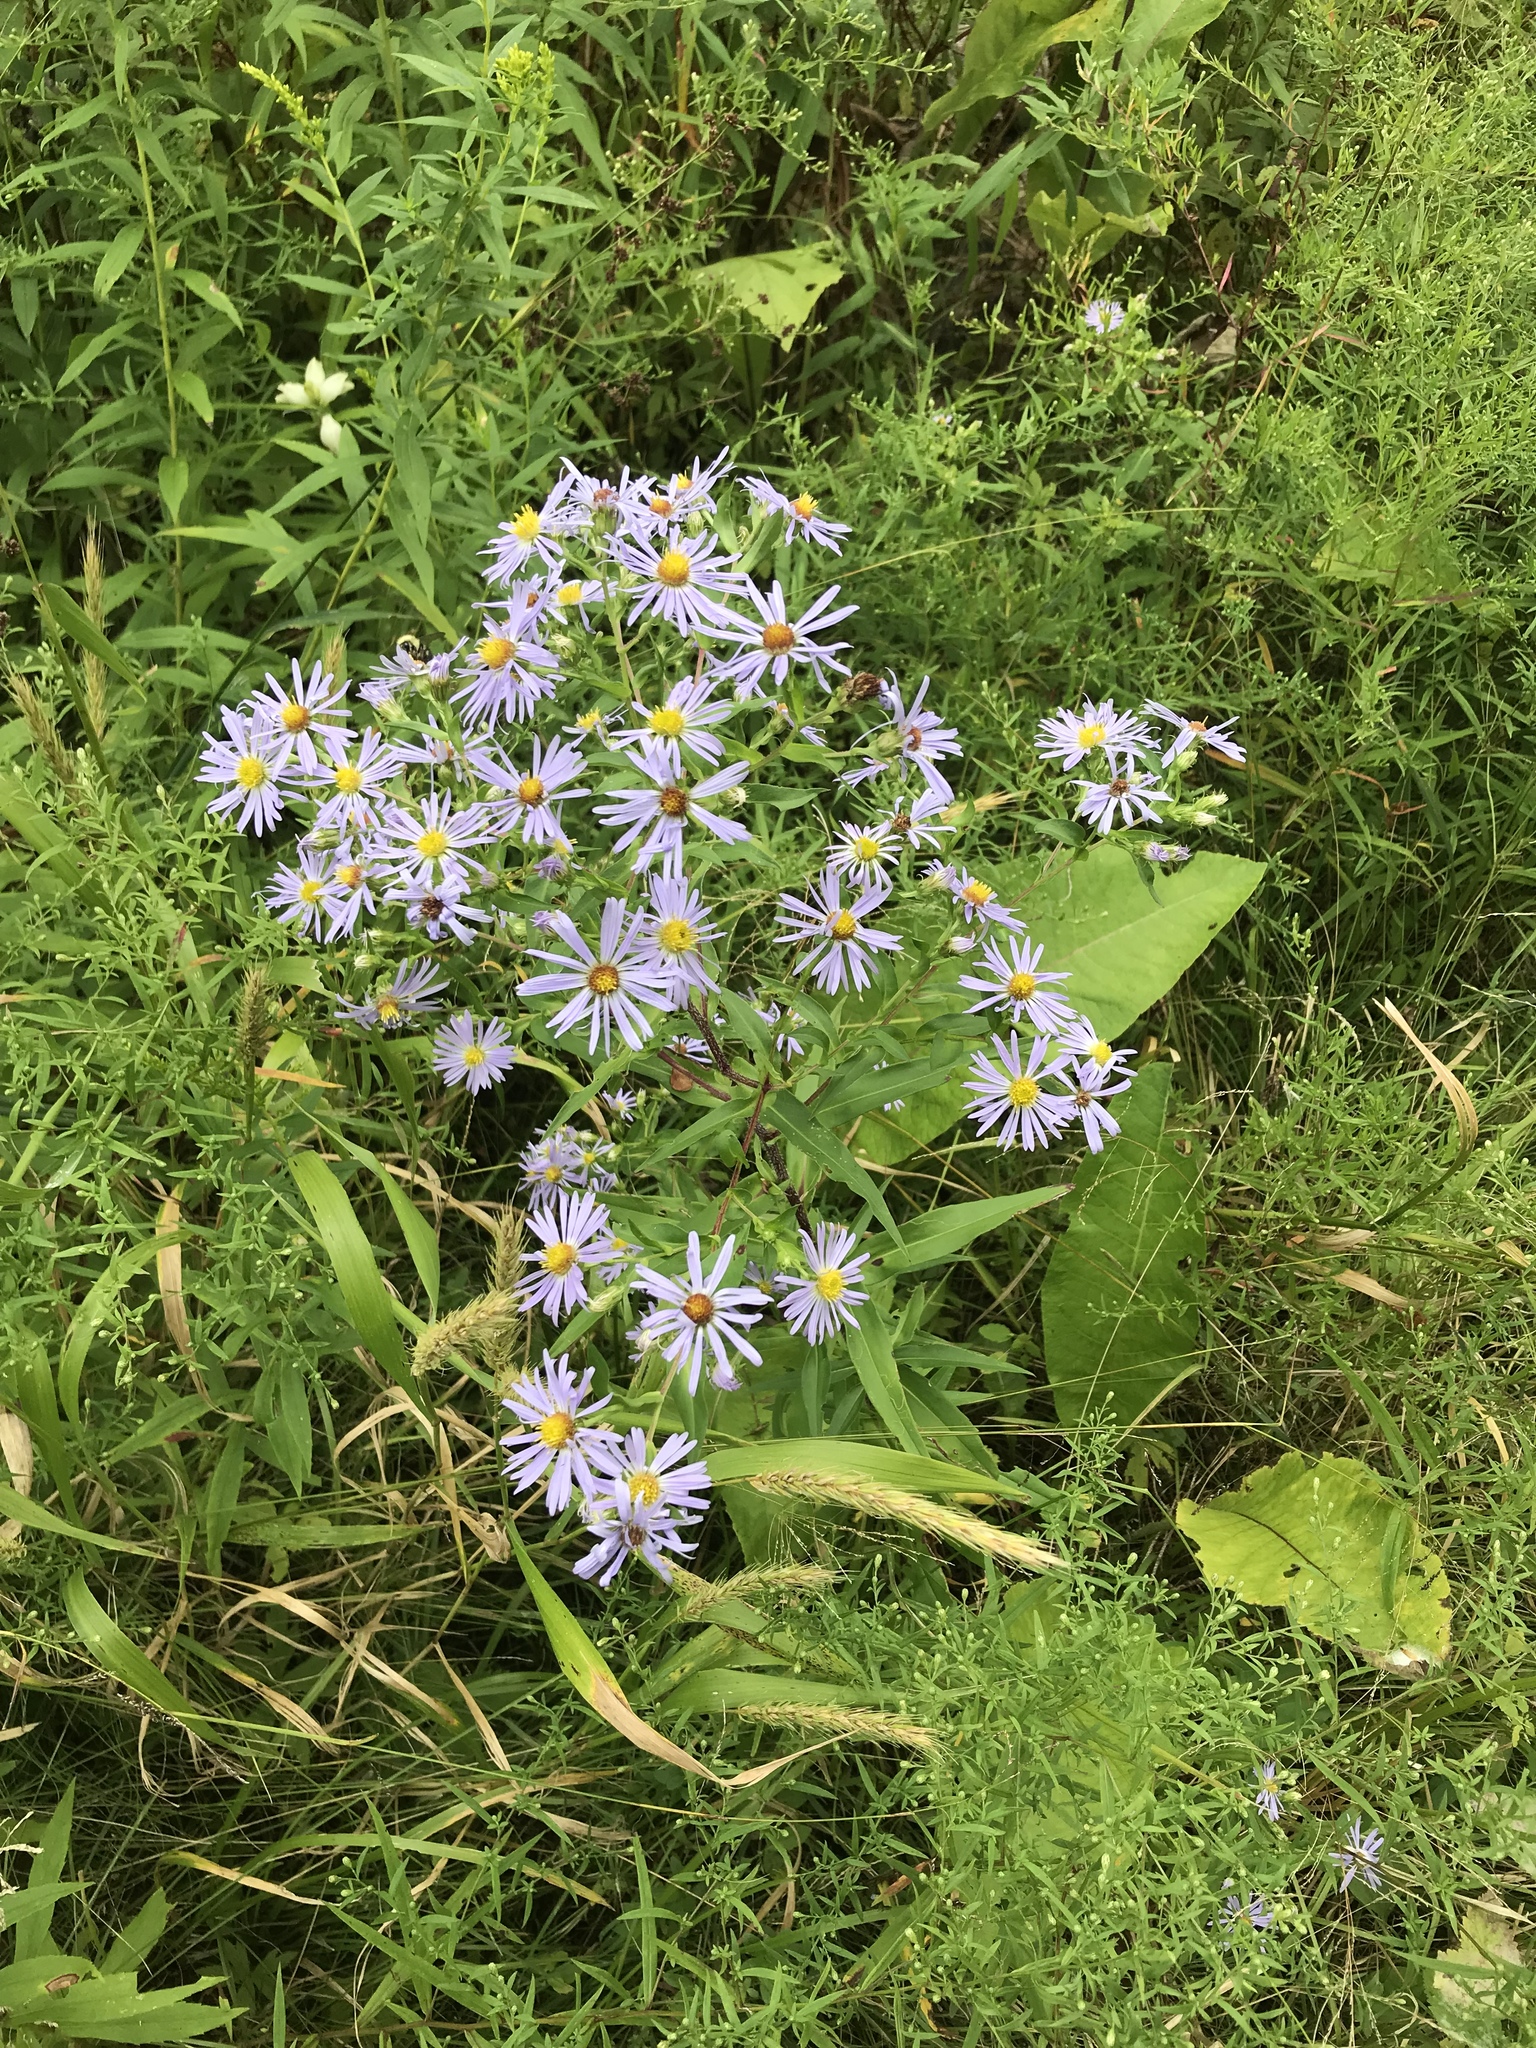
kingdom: Plantae
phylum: Tracheophyta
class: Magnoliopsida
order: Asterales
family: Asteraceae
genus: Symphyotrichum
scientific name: Symphyotrichum puniceum
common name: Bog aster
